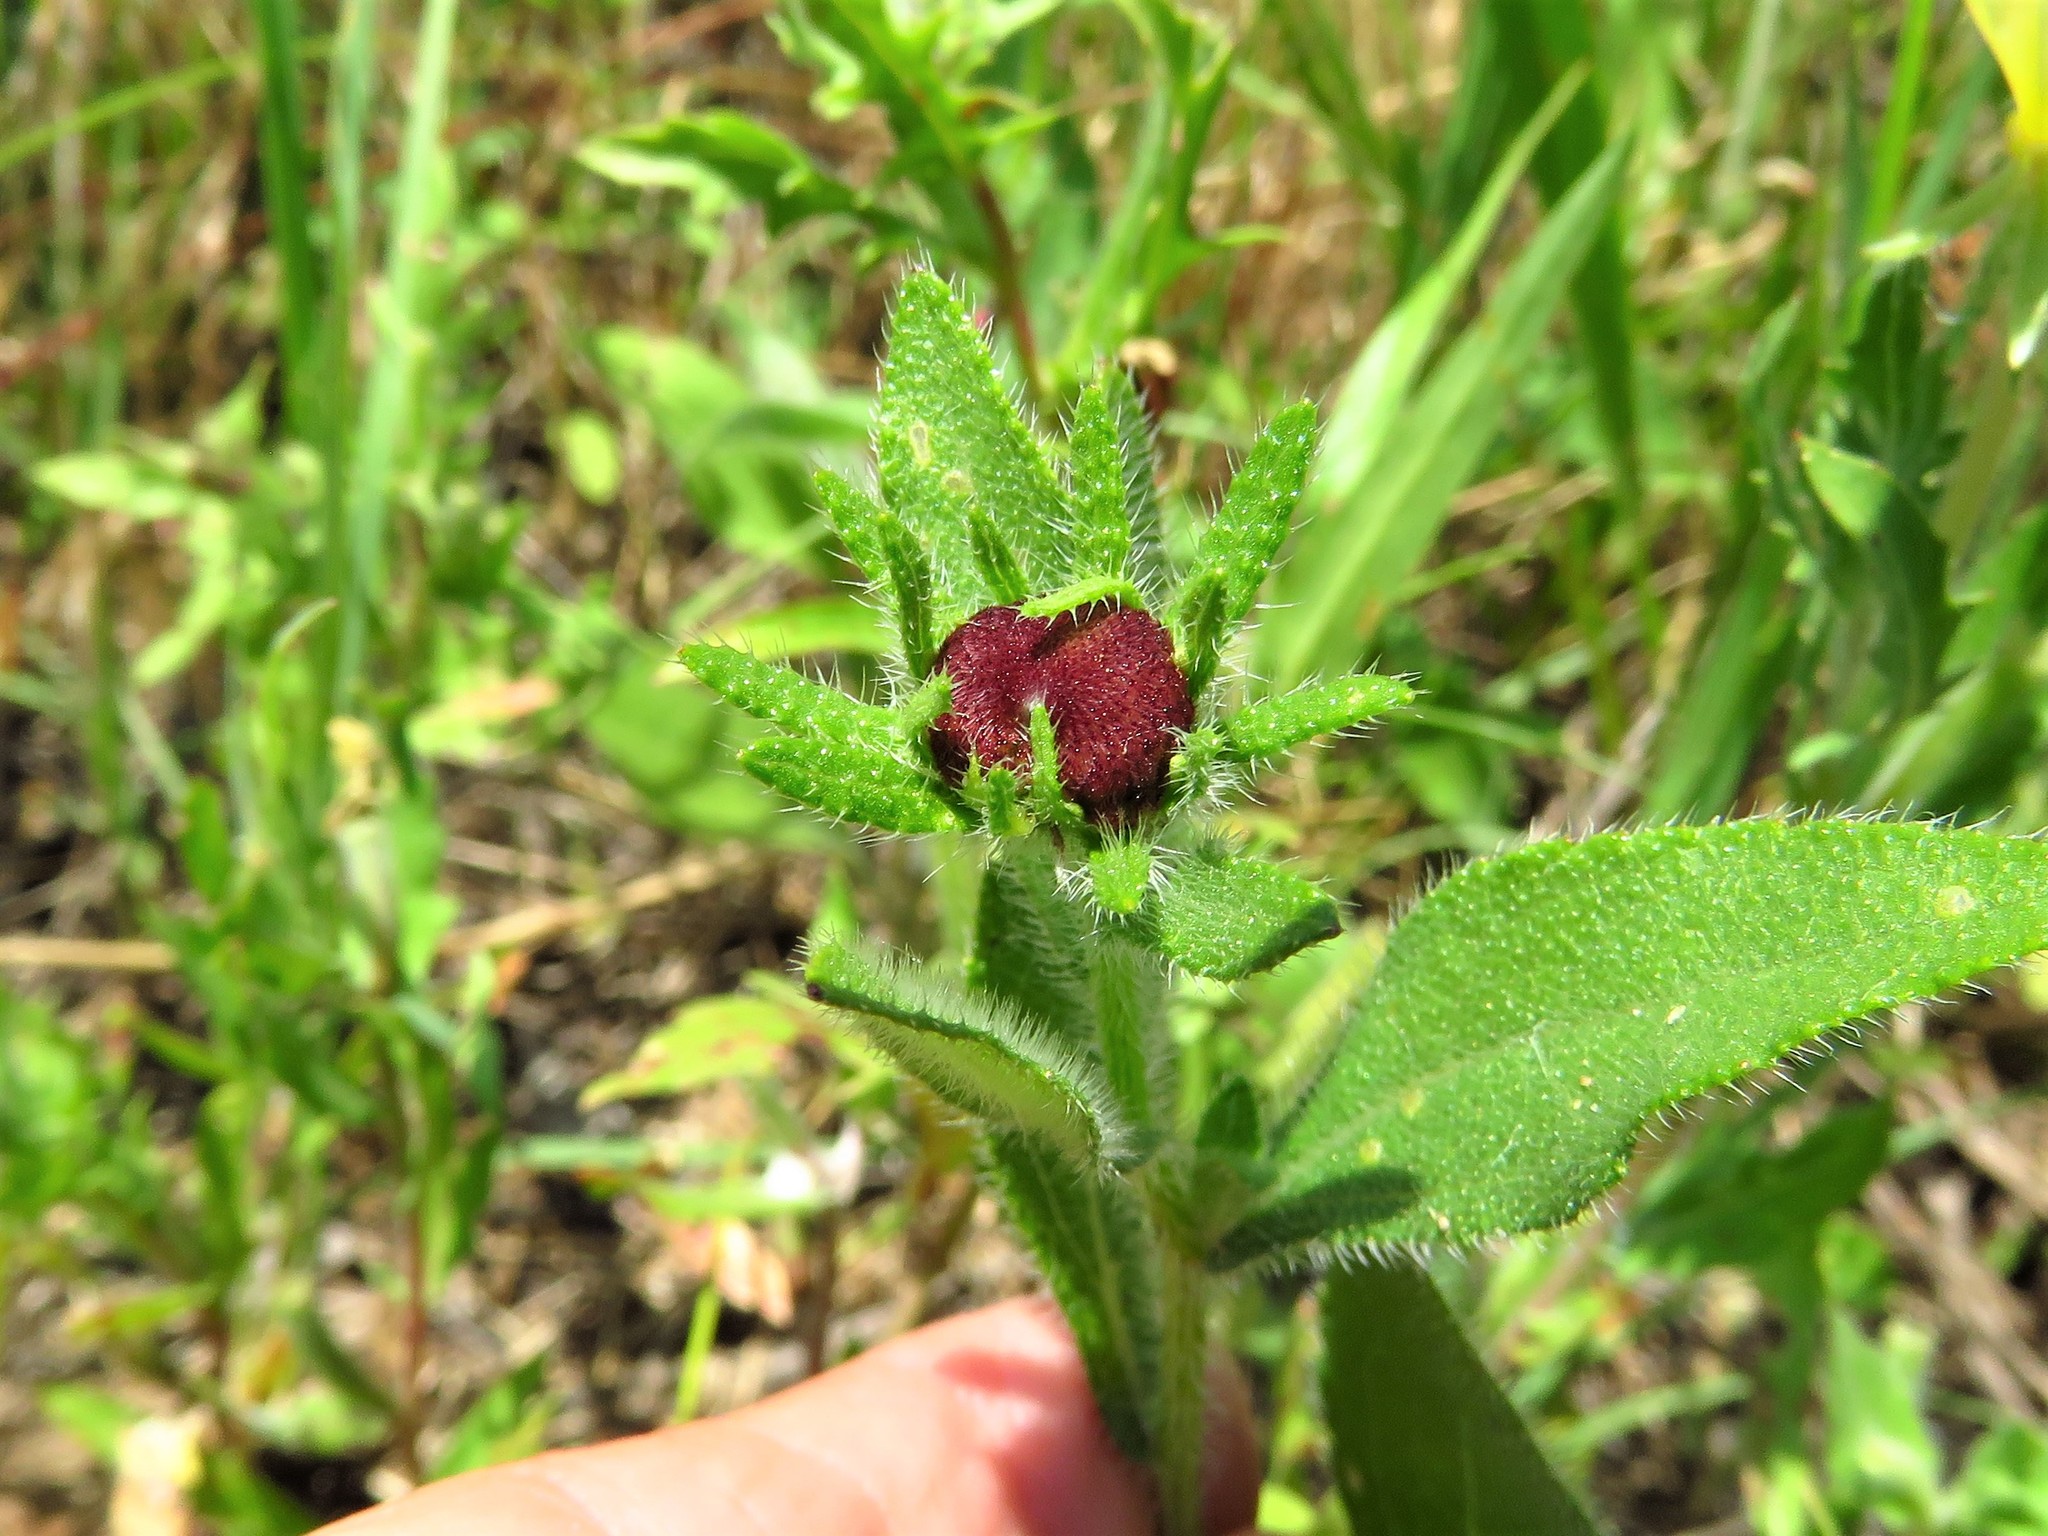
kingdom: Plantae
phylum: Tracheophyta
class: Magnoliopsida
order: Asterales
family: Asteraceae
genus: Rudbeckia
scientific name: Rudbeckia hirta
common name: Black-eyed-susan
